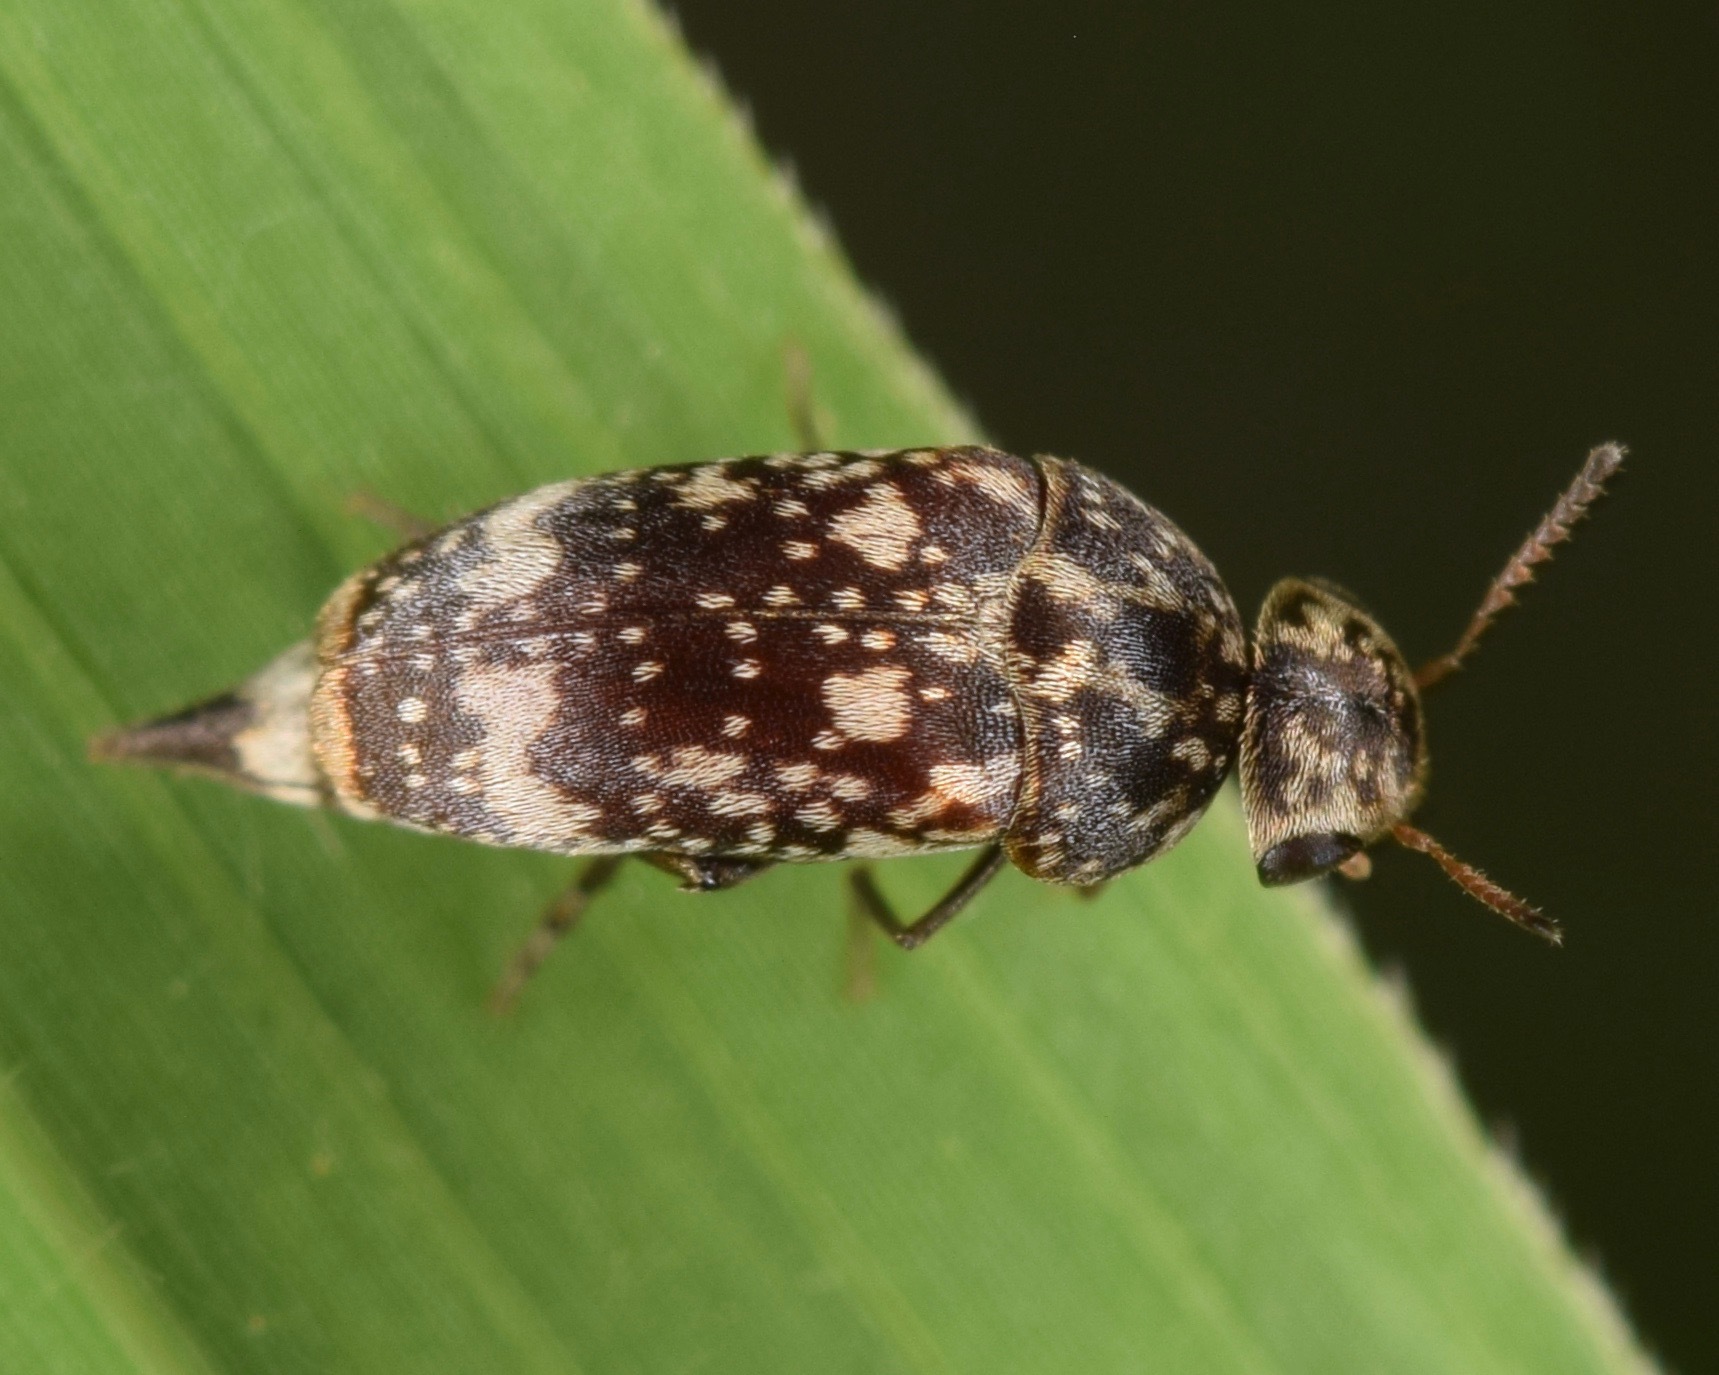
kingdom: Animalia
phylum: Arthropoda
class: Insecta
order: Coleoptera
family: Mordellidae
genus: Mordellaria
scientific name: Mordellaria serval
